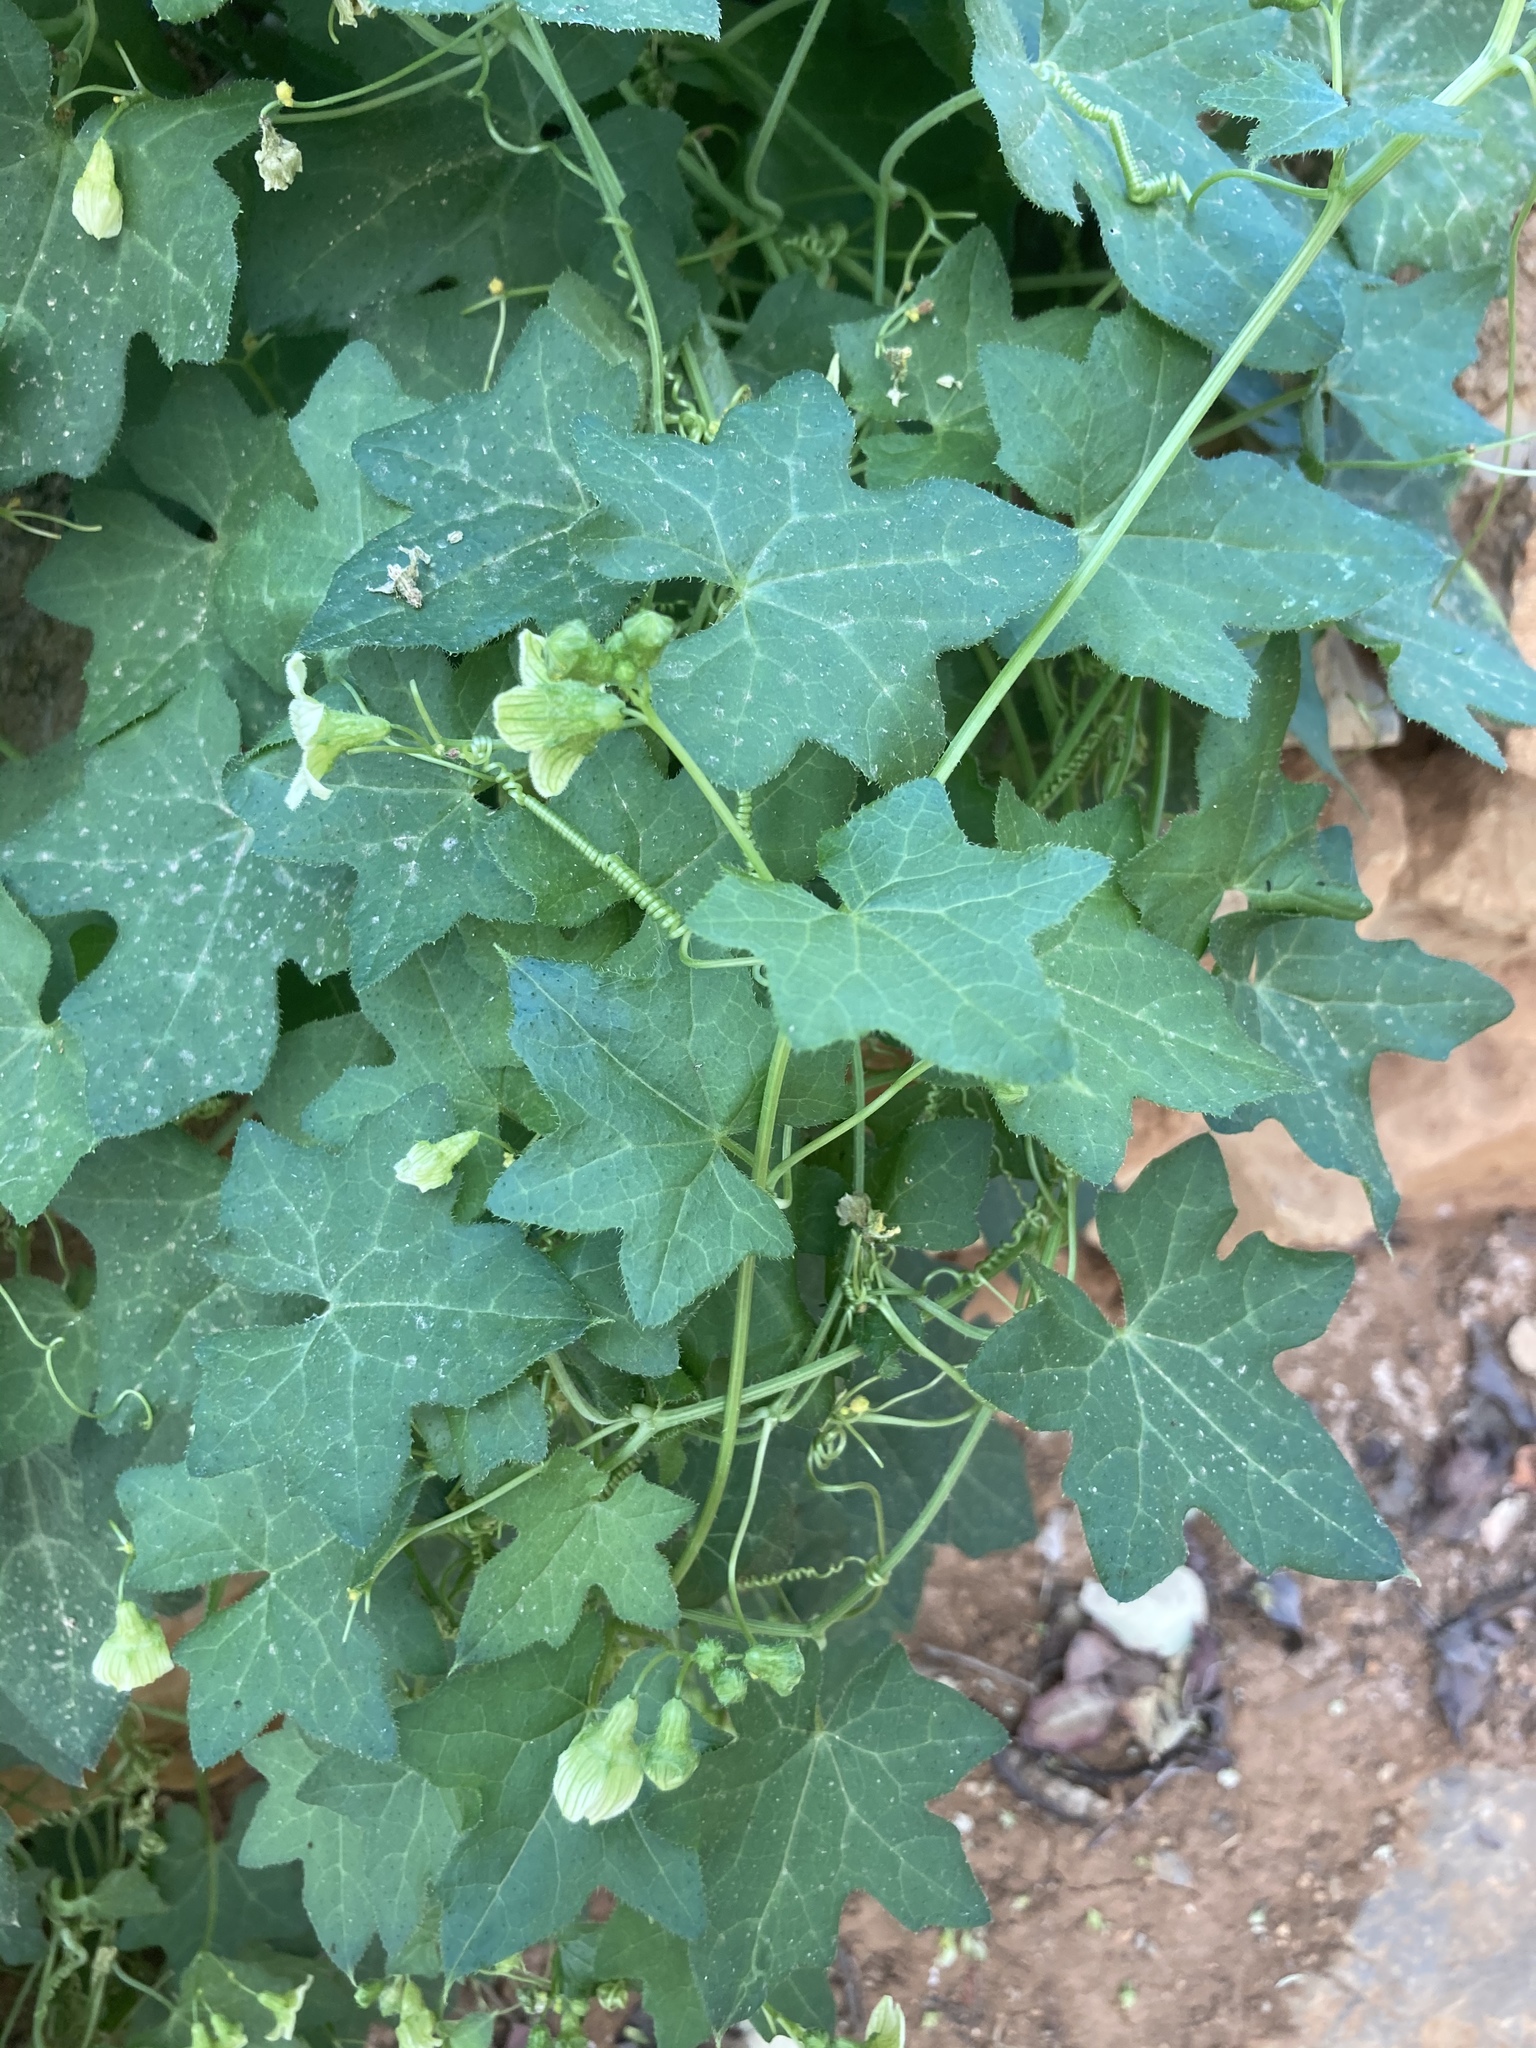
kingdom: Plantae
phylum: Tracheophyta
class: Magnoliopsida
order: Cucurbitales
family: Cucurbitaceae
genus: Bryonia
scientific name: Bryonia cretica
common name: Cretan bryony
